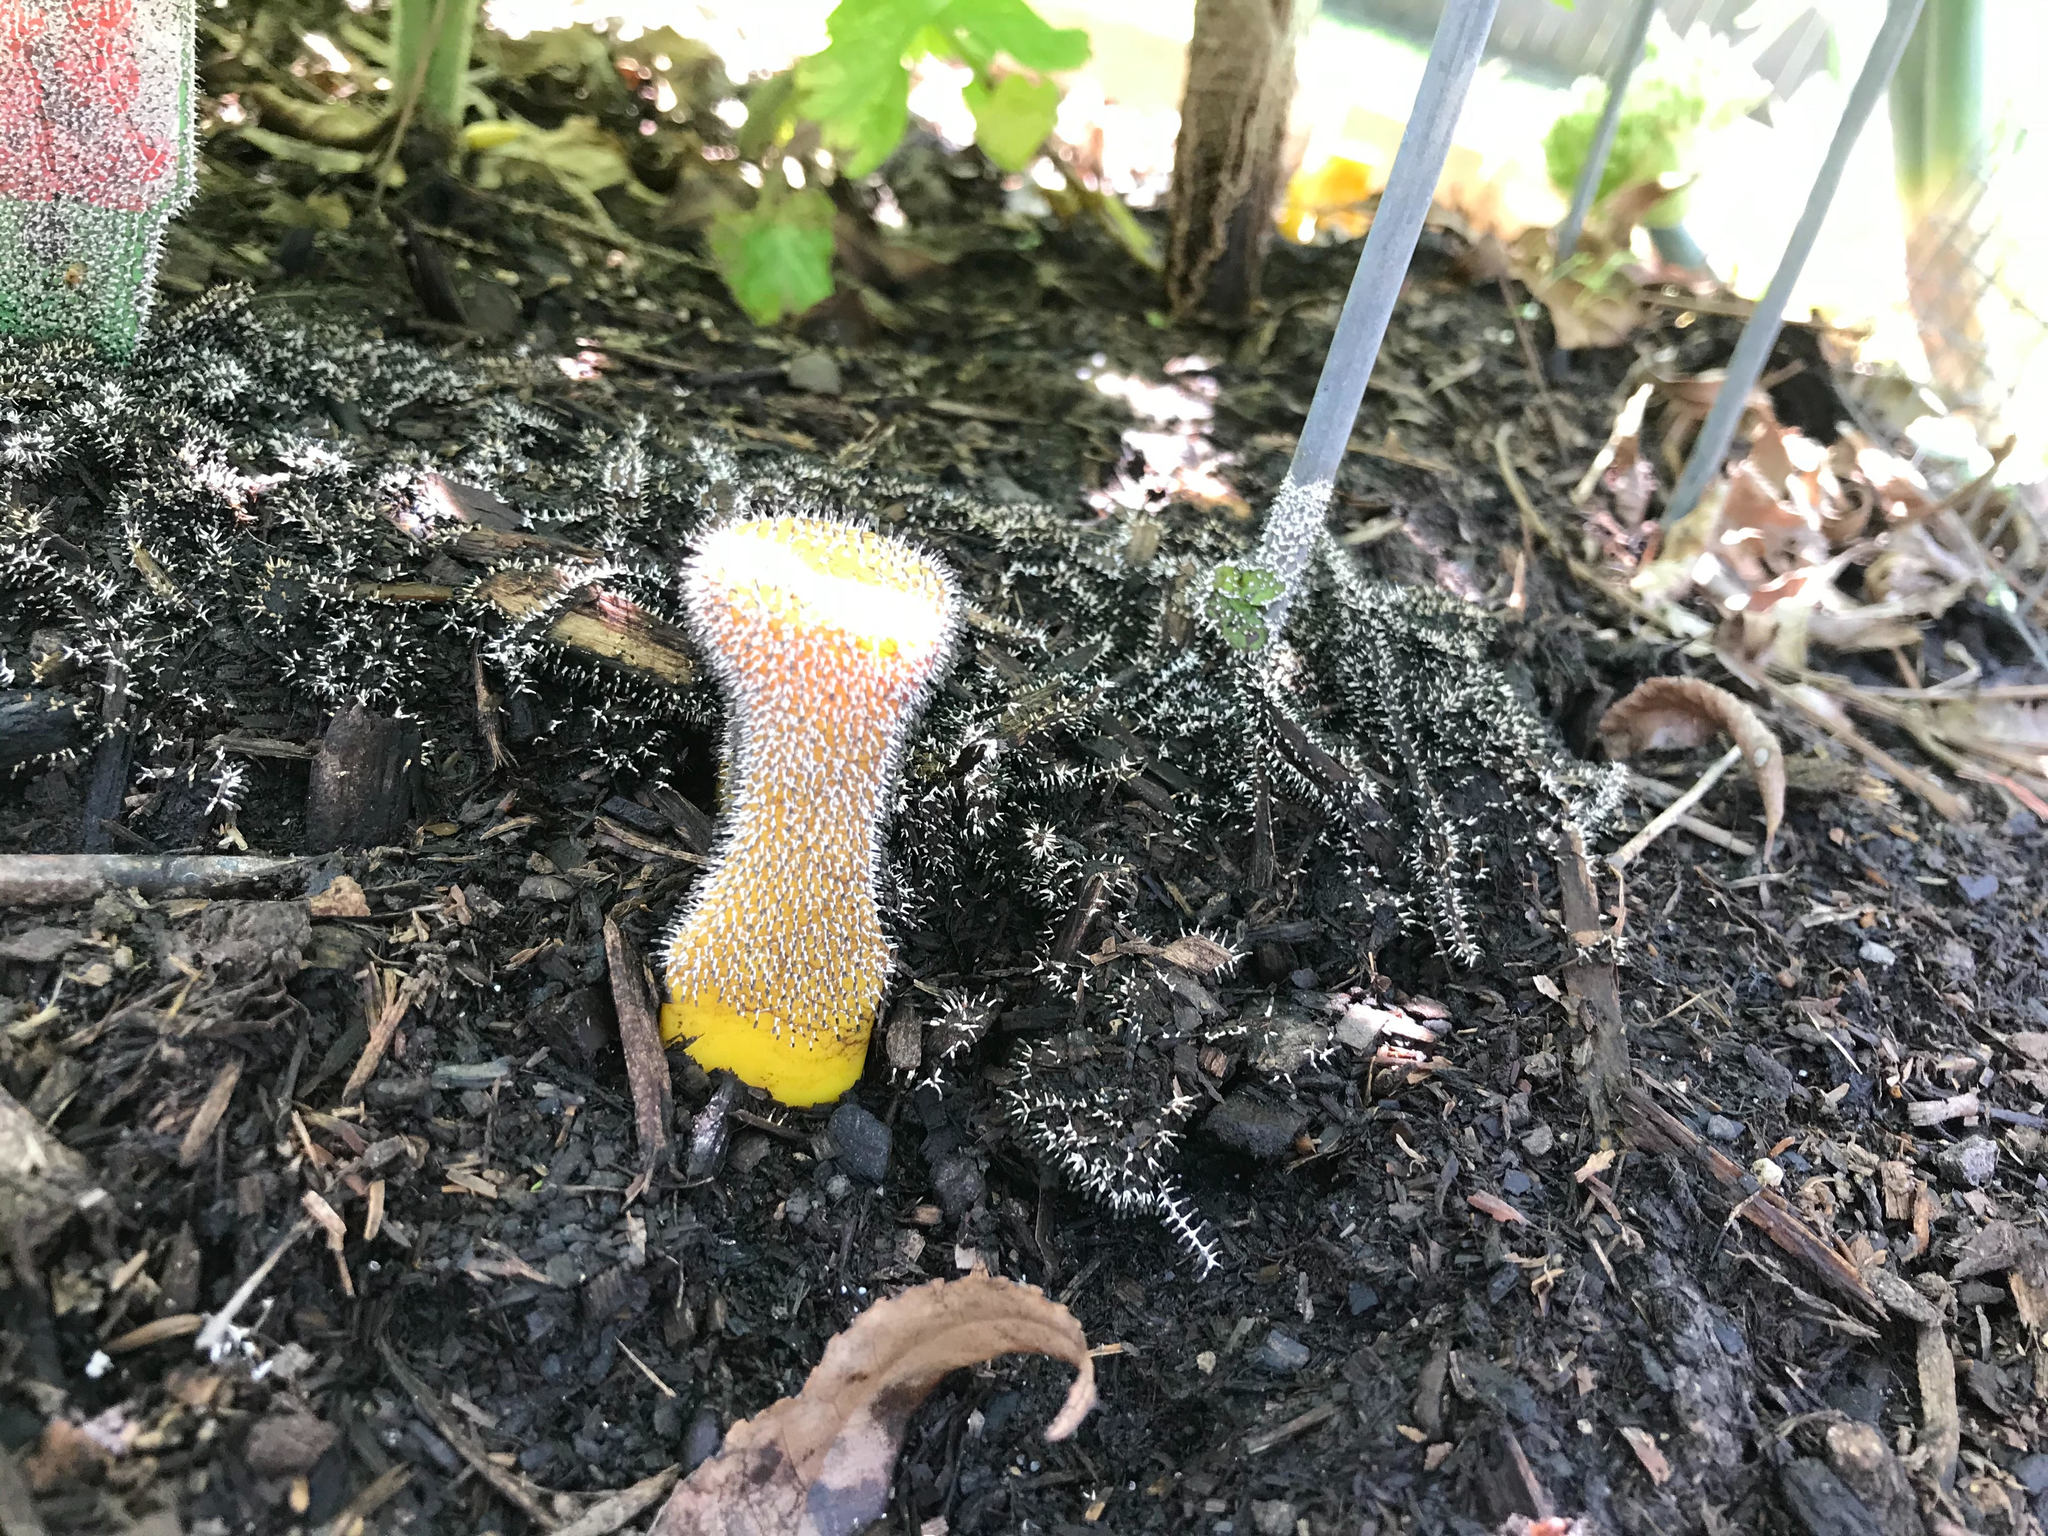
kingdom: Protozoa
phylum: Mycetozoa
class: Myxomycetes
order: Physarales
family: Didymiaceae
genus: Diachea
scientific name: Diachea leucopodia
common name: White-footed slime
